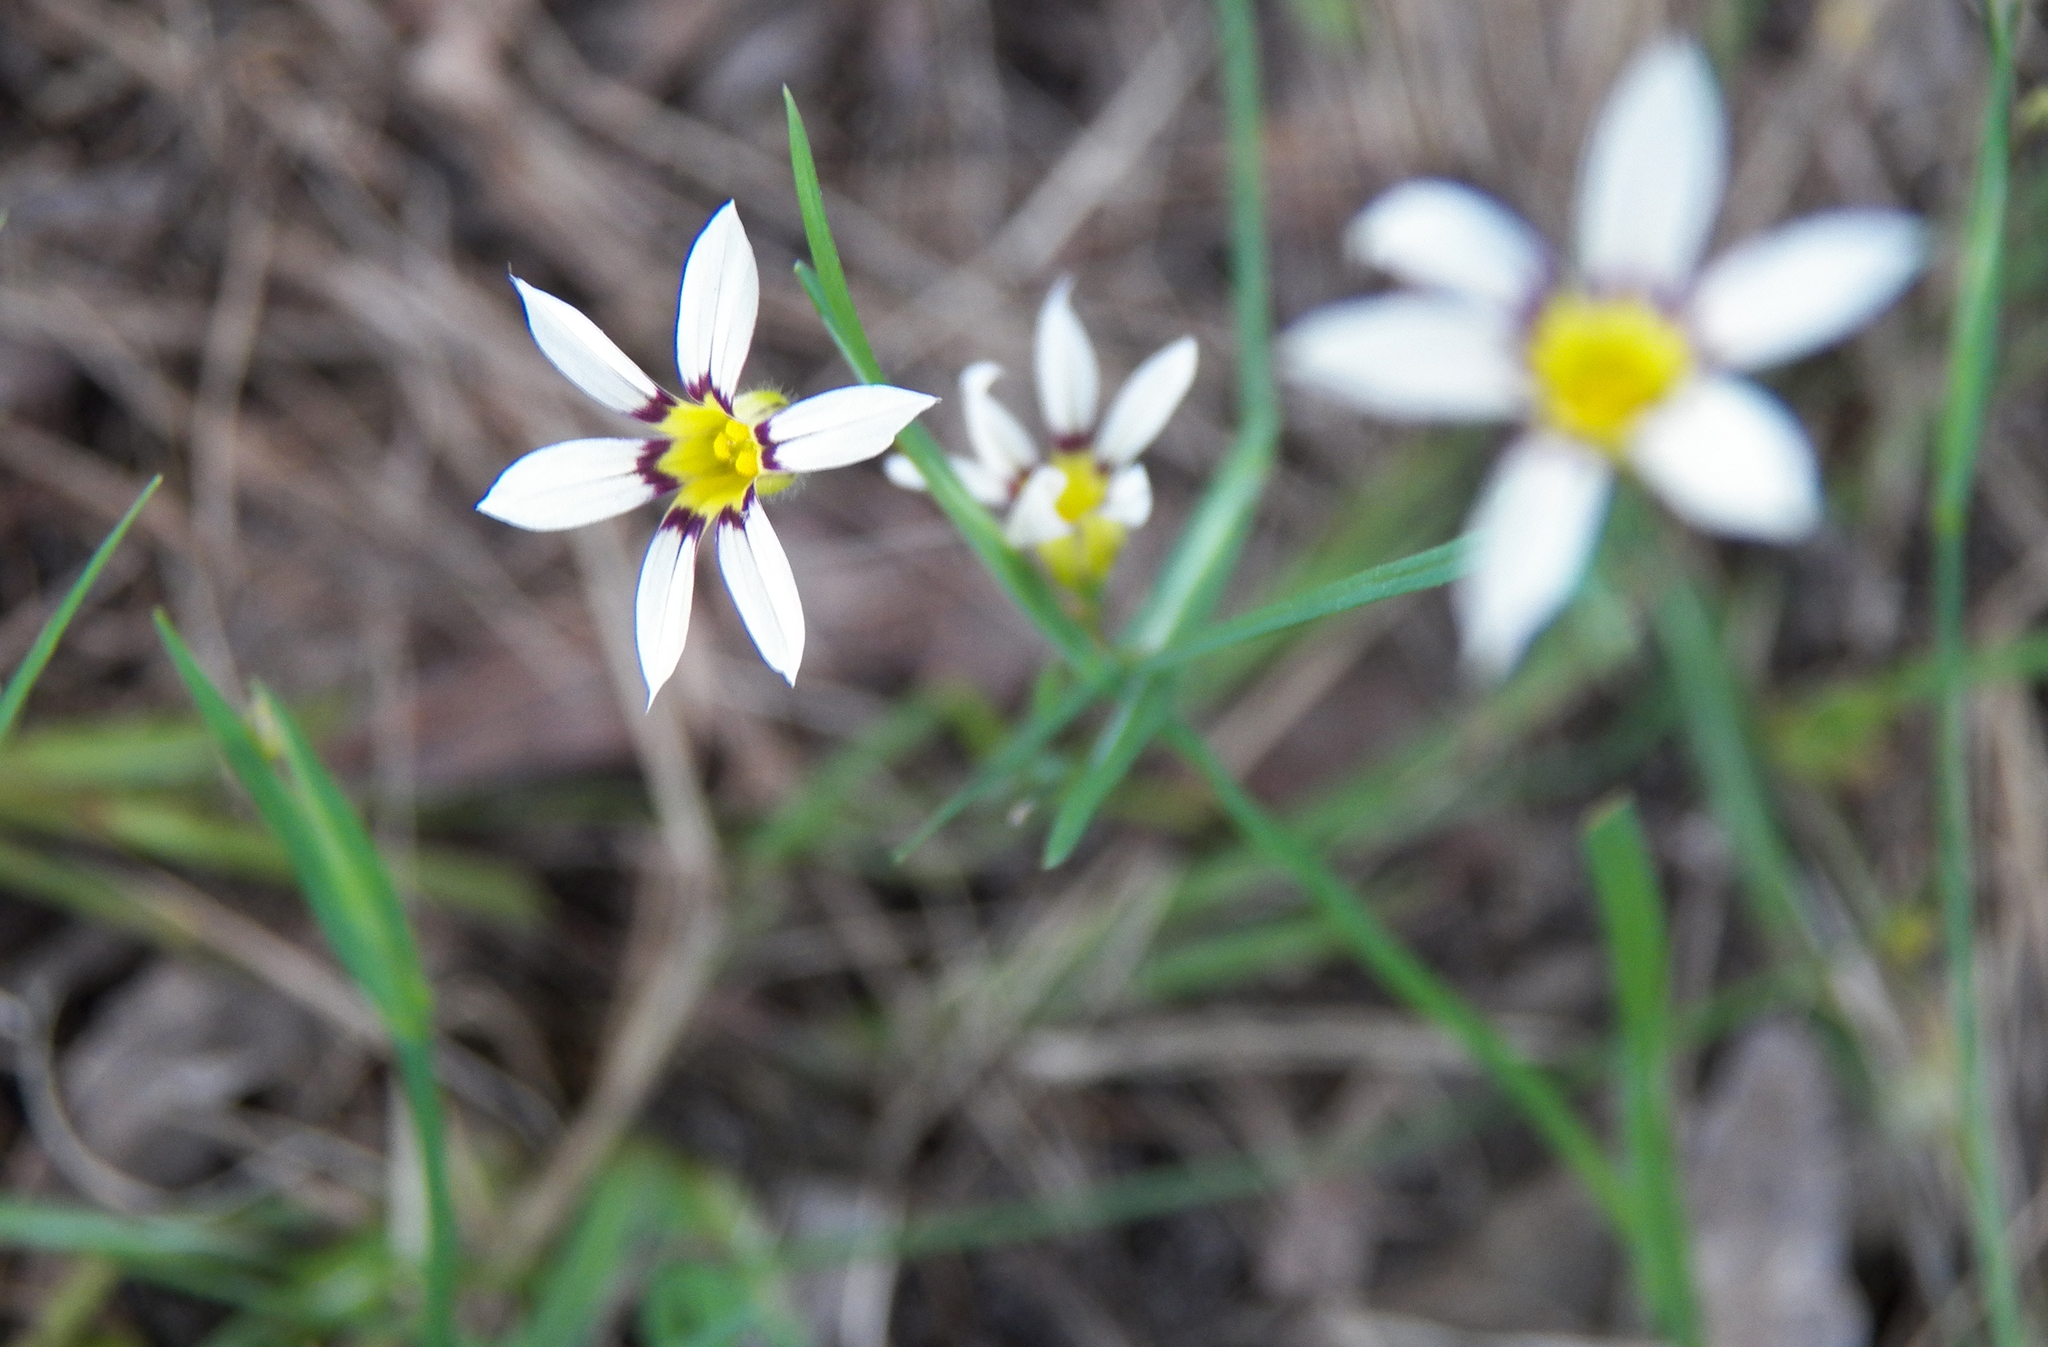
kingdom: Plantae
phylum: Tracheophyta
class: Liliopsida
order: Asparagales
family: Iridaceae
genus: Sisyrinchium
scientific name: Sisyrinchium micranthum
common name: Bermuda pigroot
